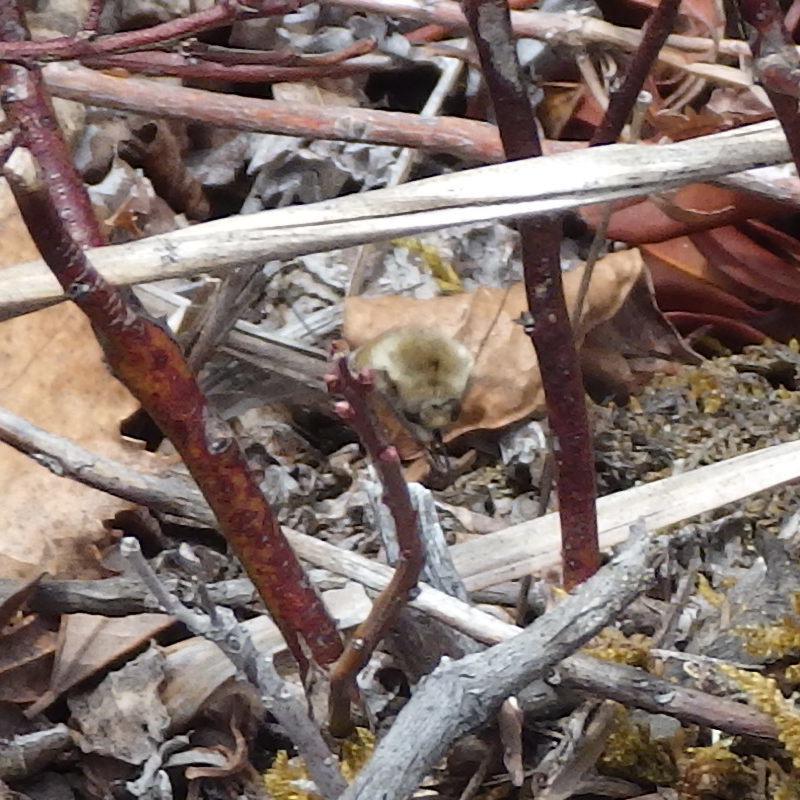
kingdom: Animalia
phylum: Arthropoda
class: Insecta
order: Diptera
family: Bombyliidae
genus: Bombylius
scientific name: Bombylius major
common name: Bee fly
